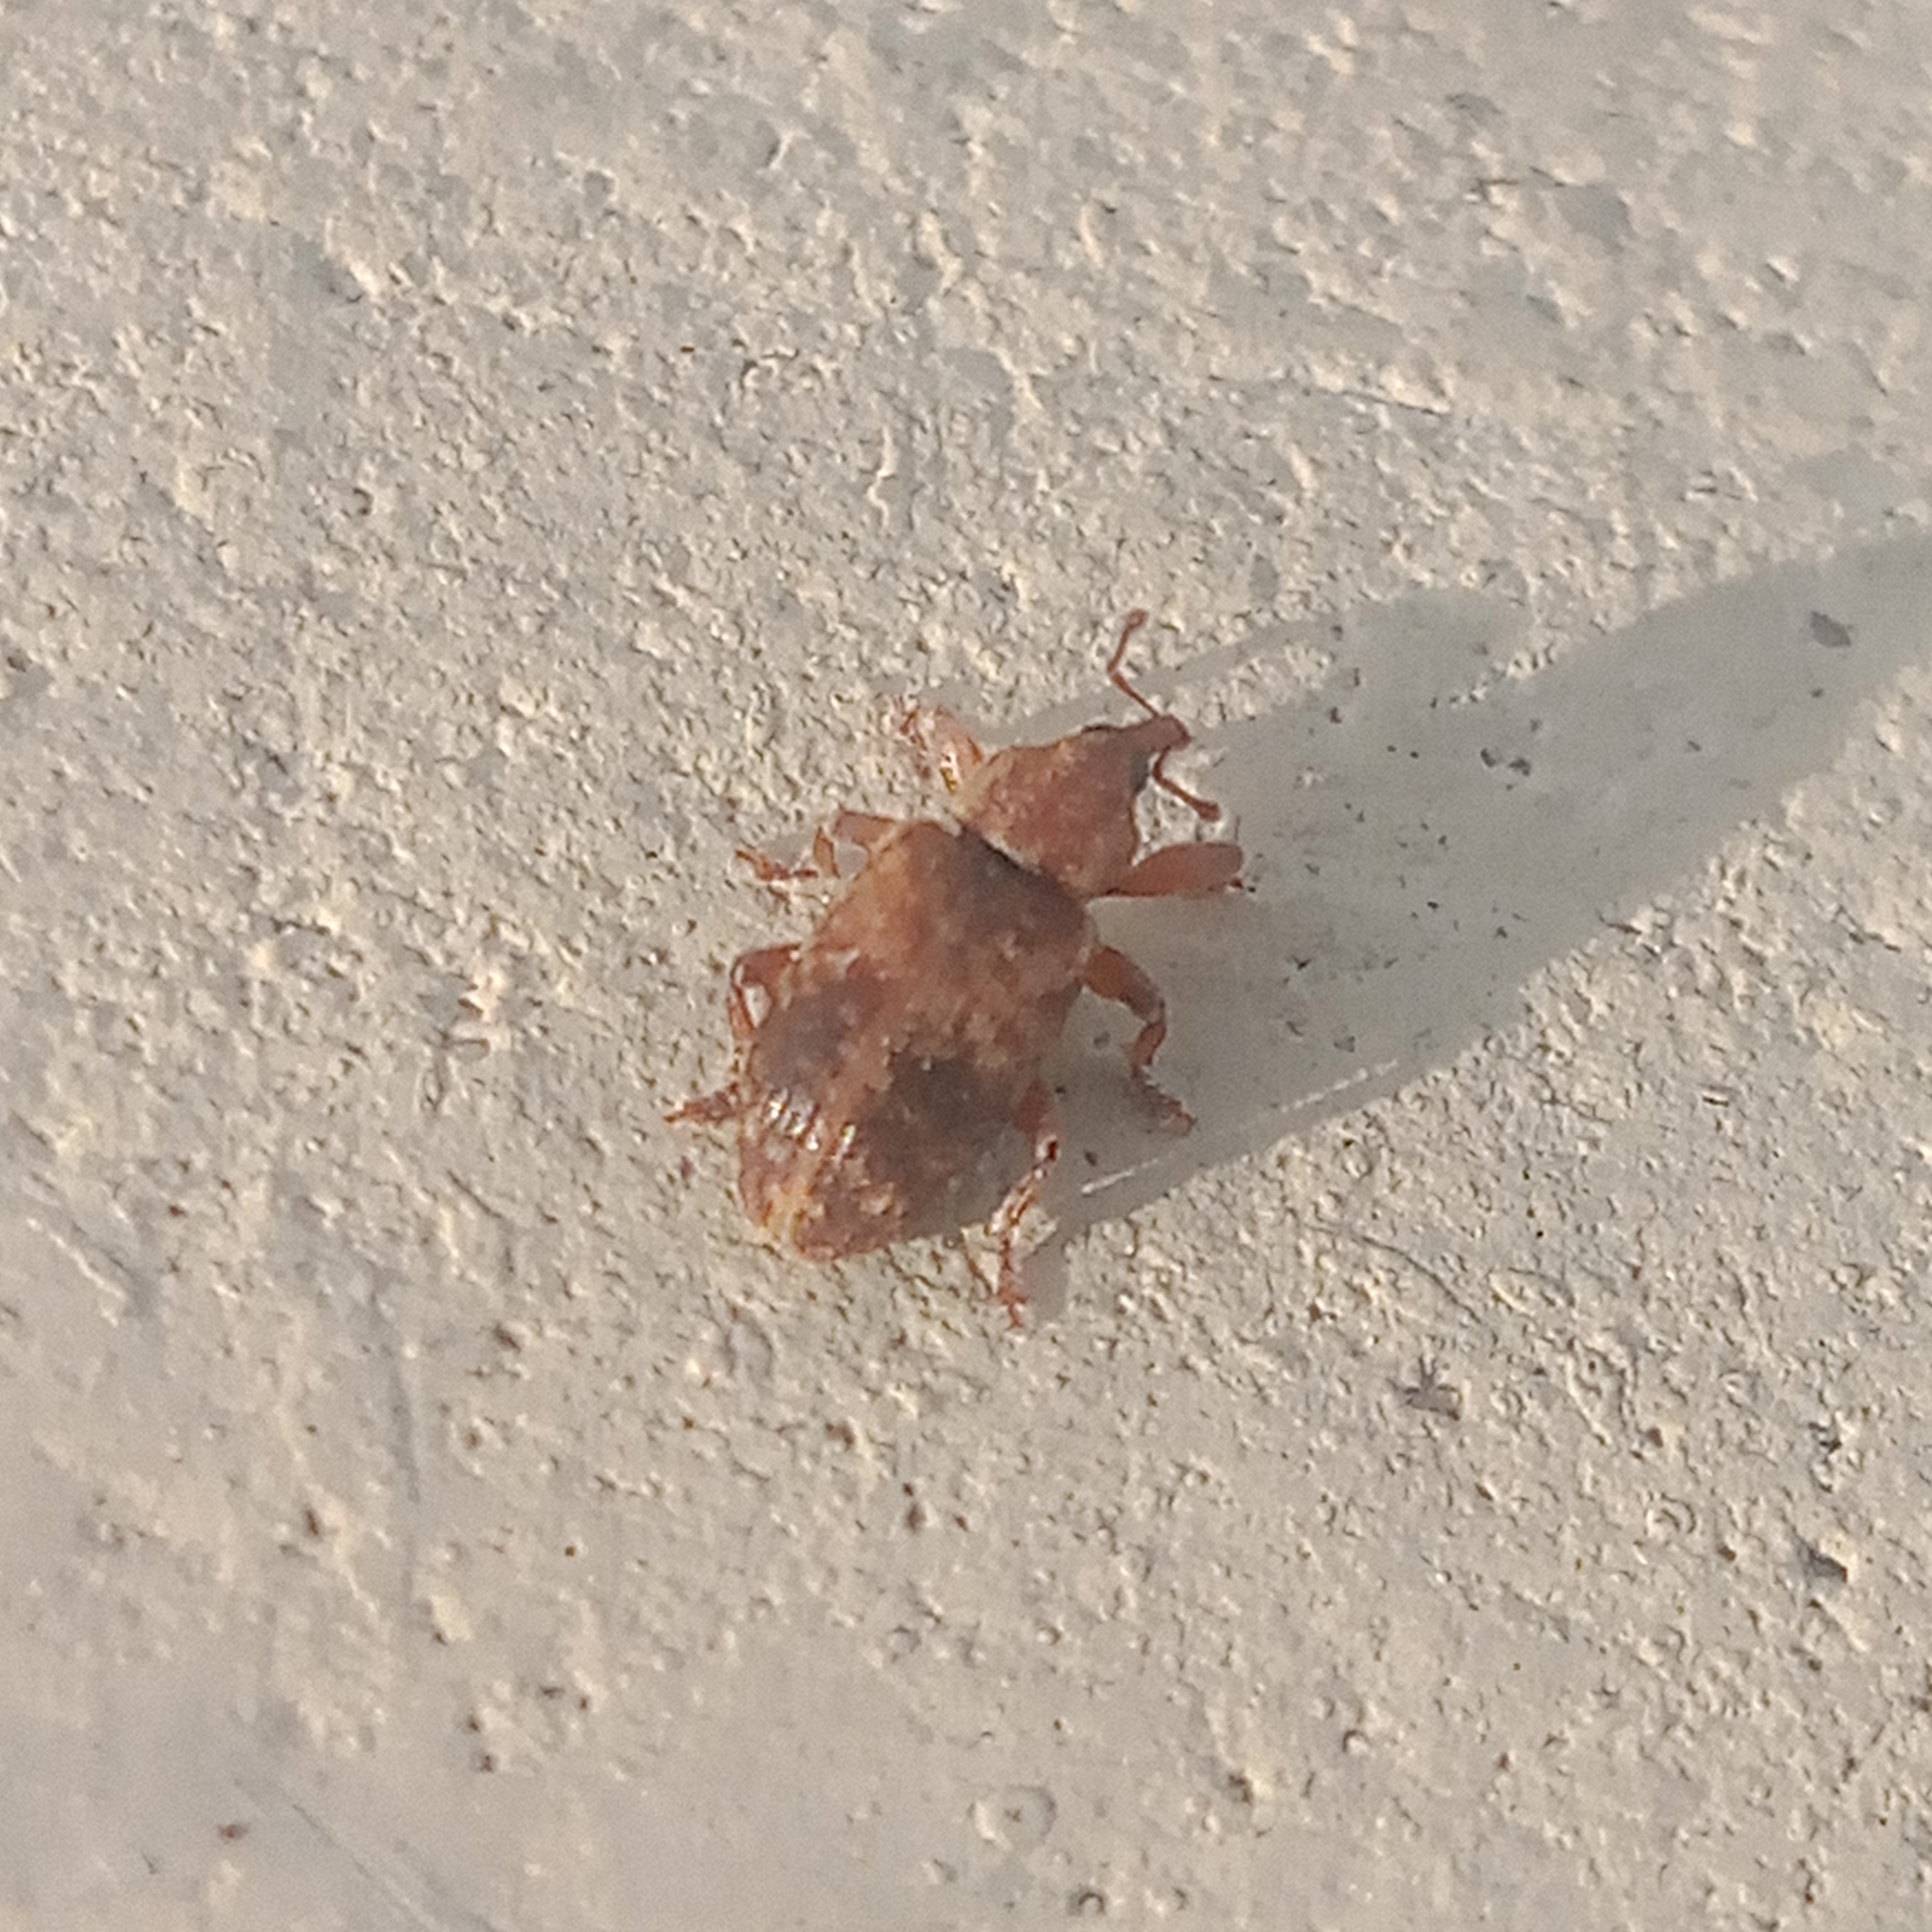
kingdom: Animalia
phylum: Arthropoda
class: Insecta
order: Coleoptera
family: Brachyceridae
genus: Erirhinus
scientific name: Erirhinus nebulosus
